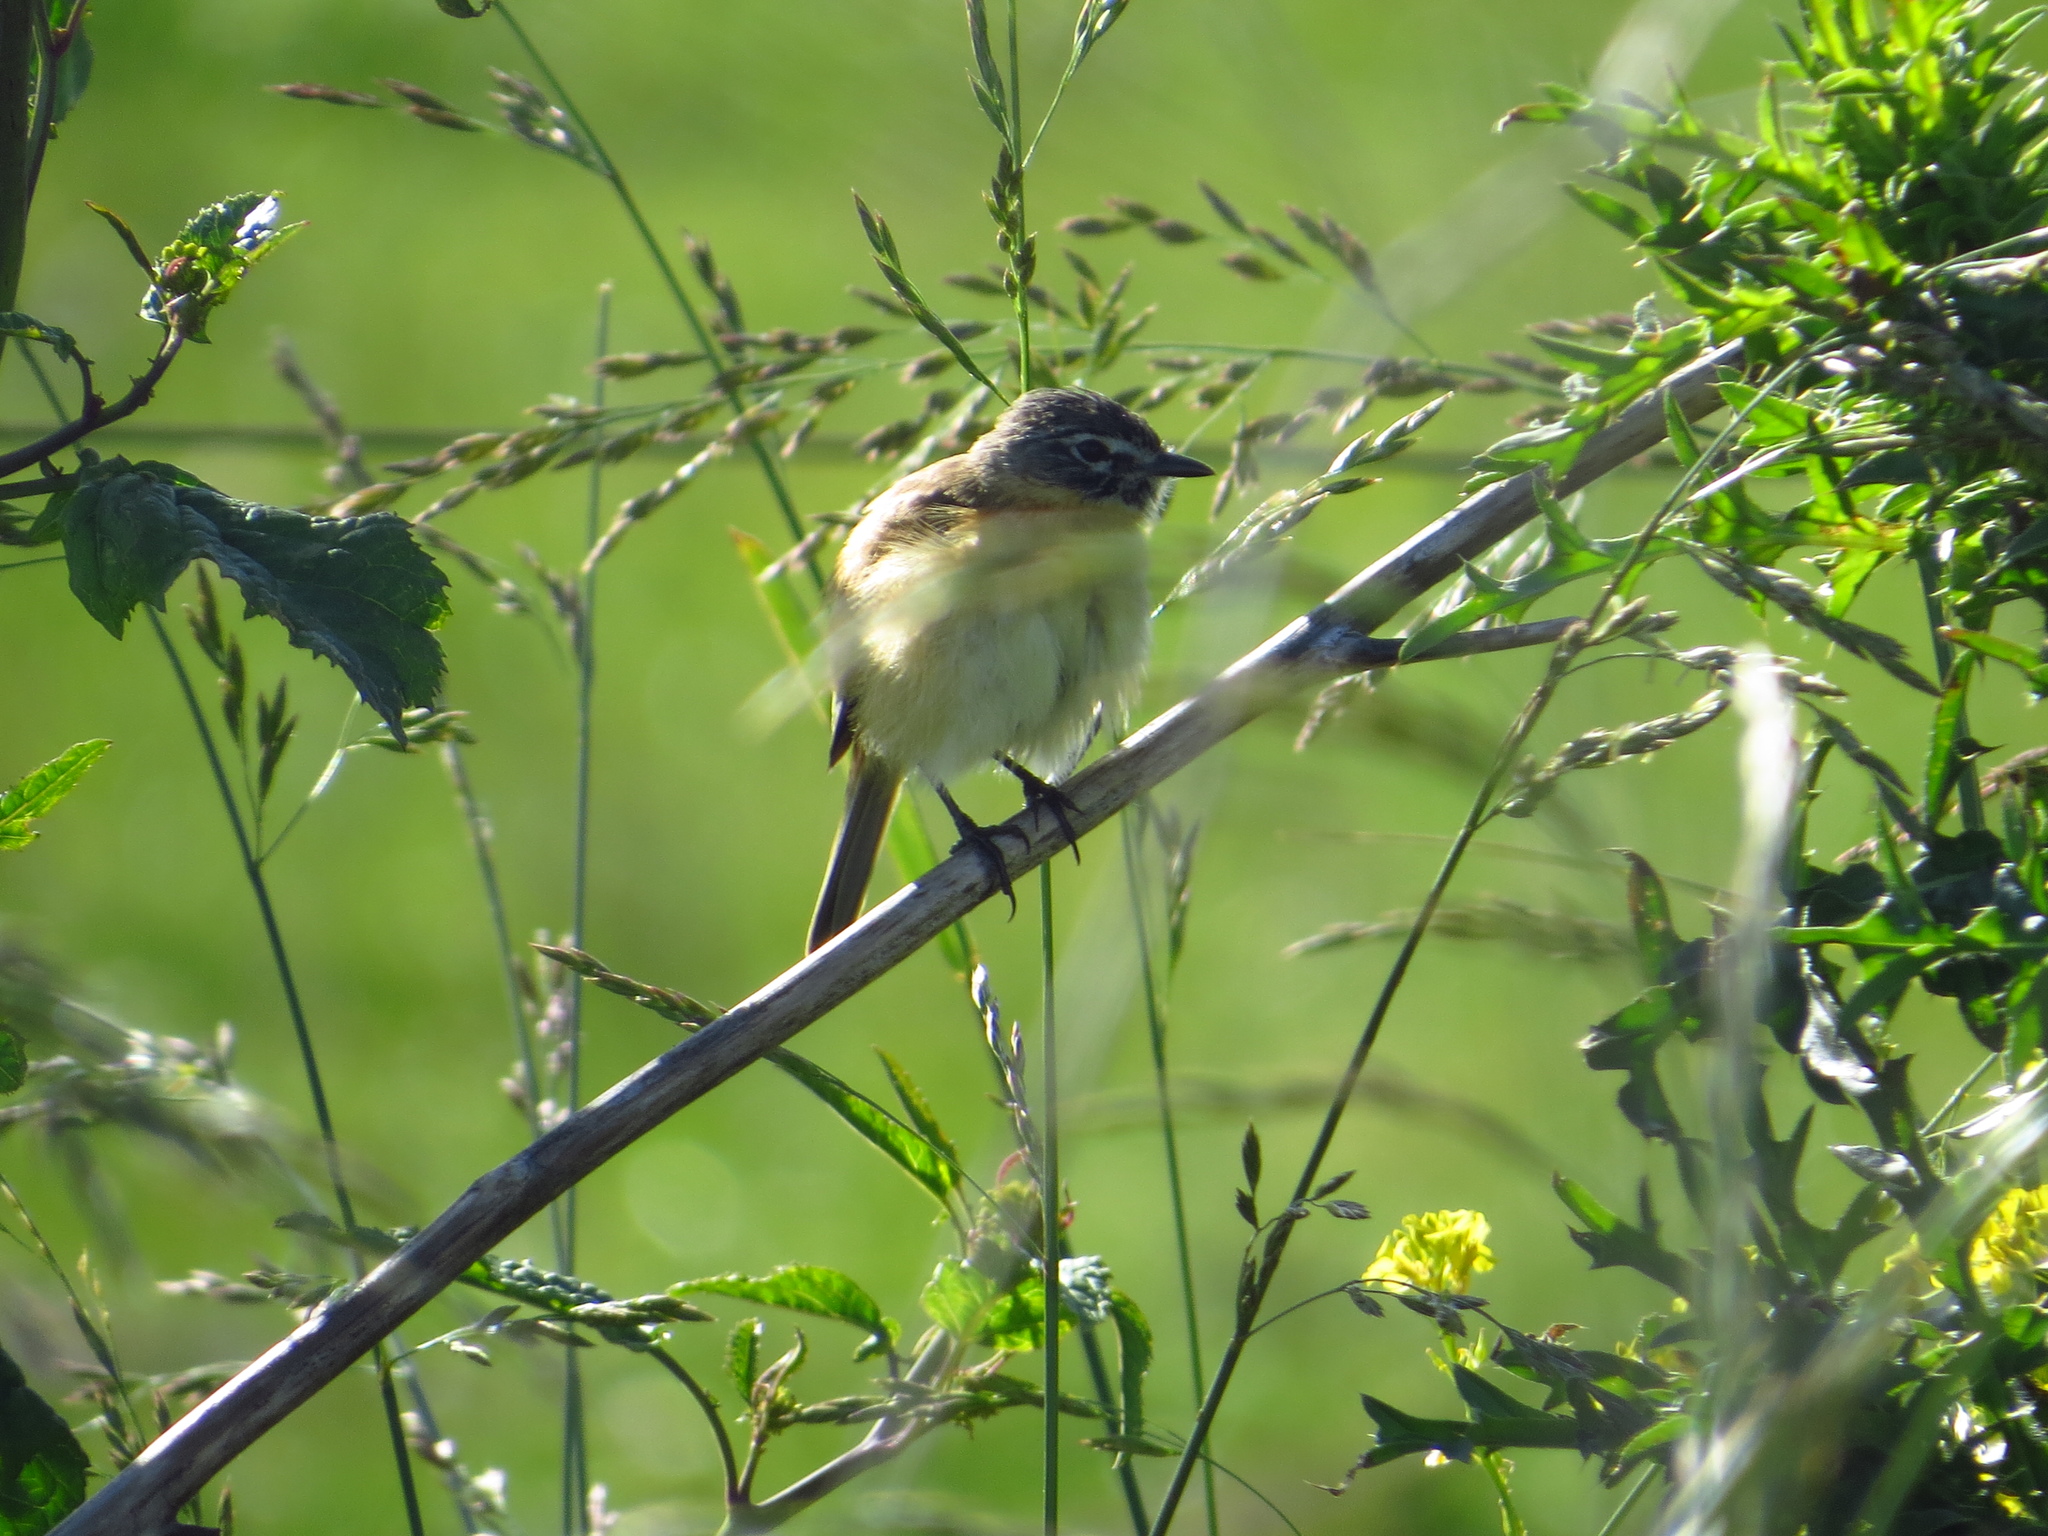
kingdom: Animalia
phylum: Chordata
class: Aves
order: Passeriformes
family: Tyrannidae
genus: Polystictus
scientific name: Polystictus pectoralis
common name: Bearded tachuri
